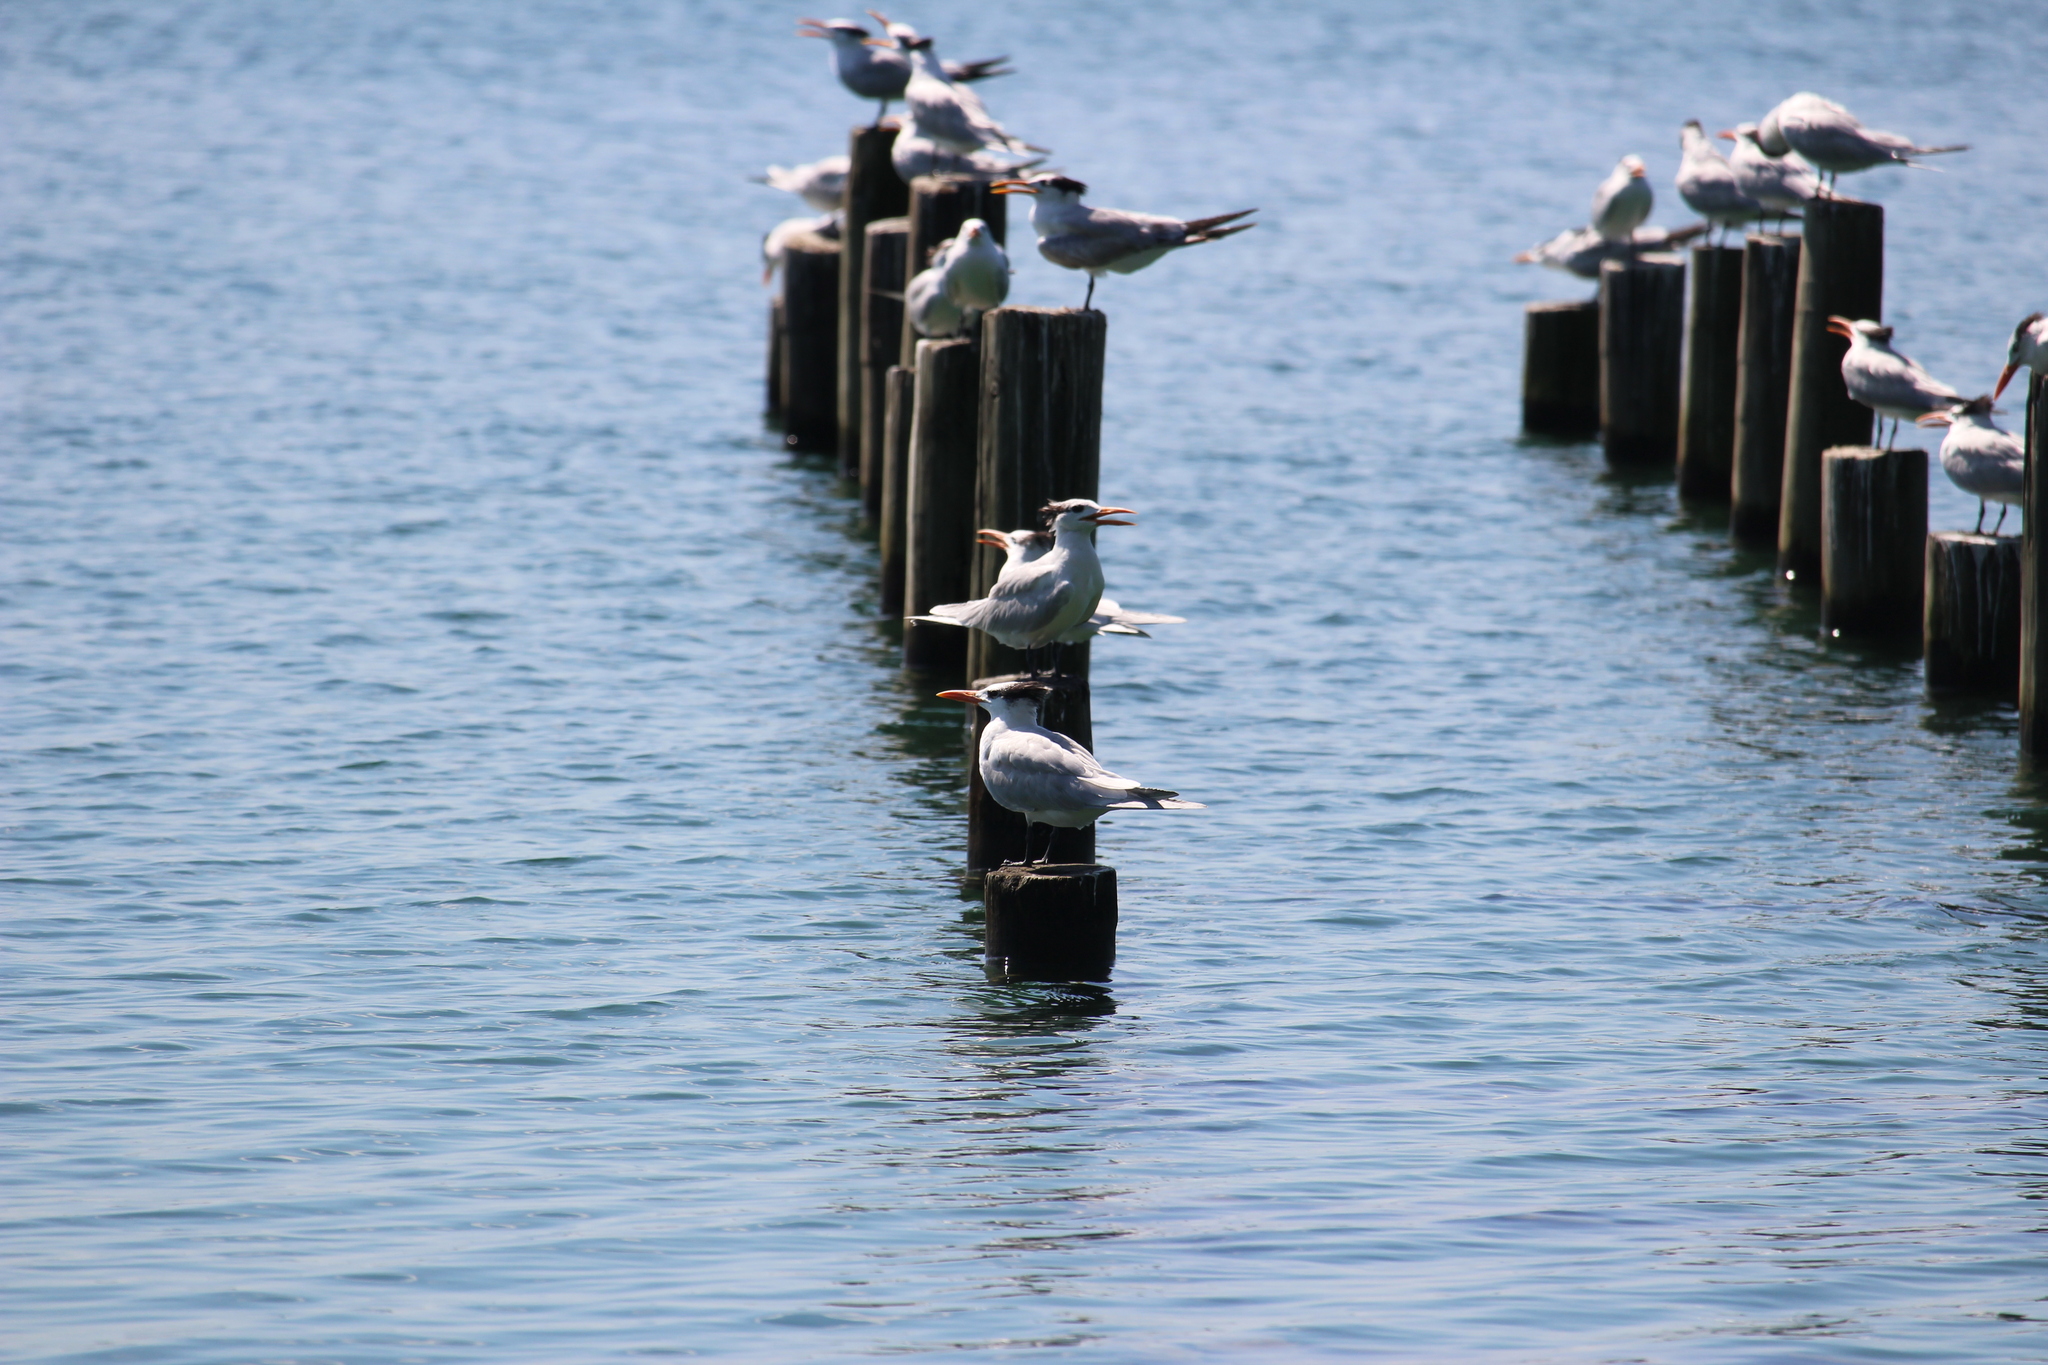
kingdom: Animalia
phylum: Chordata
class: Aves
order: Charadriiformes
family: Laridae
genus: Thalasseus
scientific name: Thalasseus maximus
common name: Royal tern
